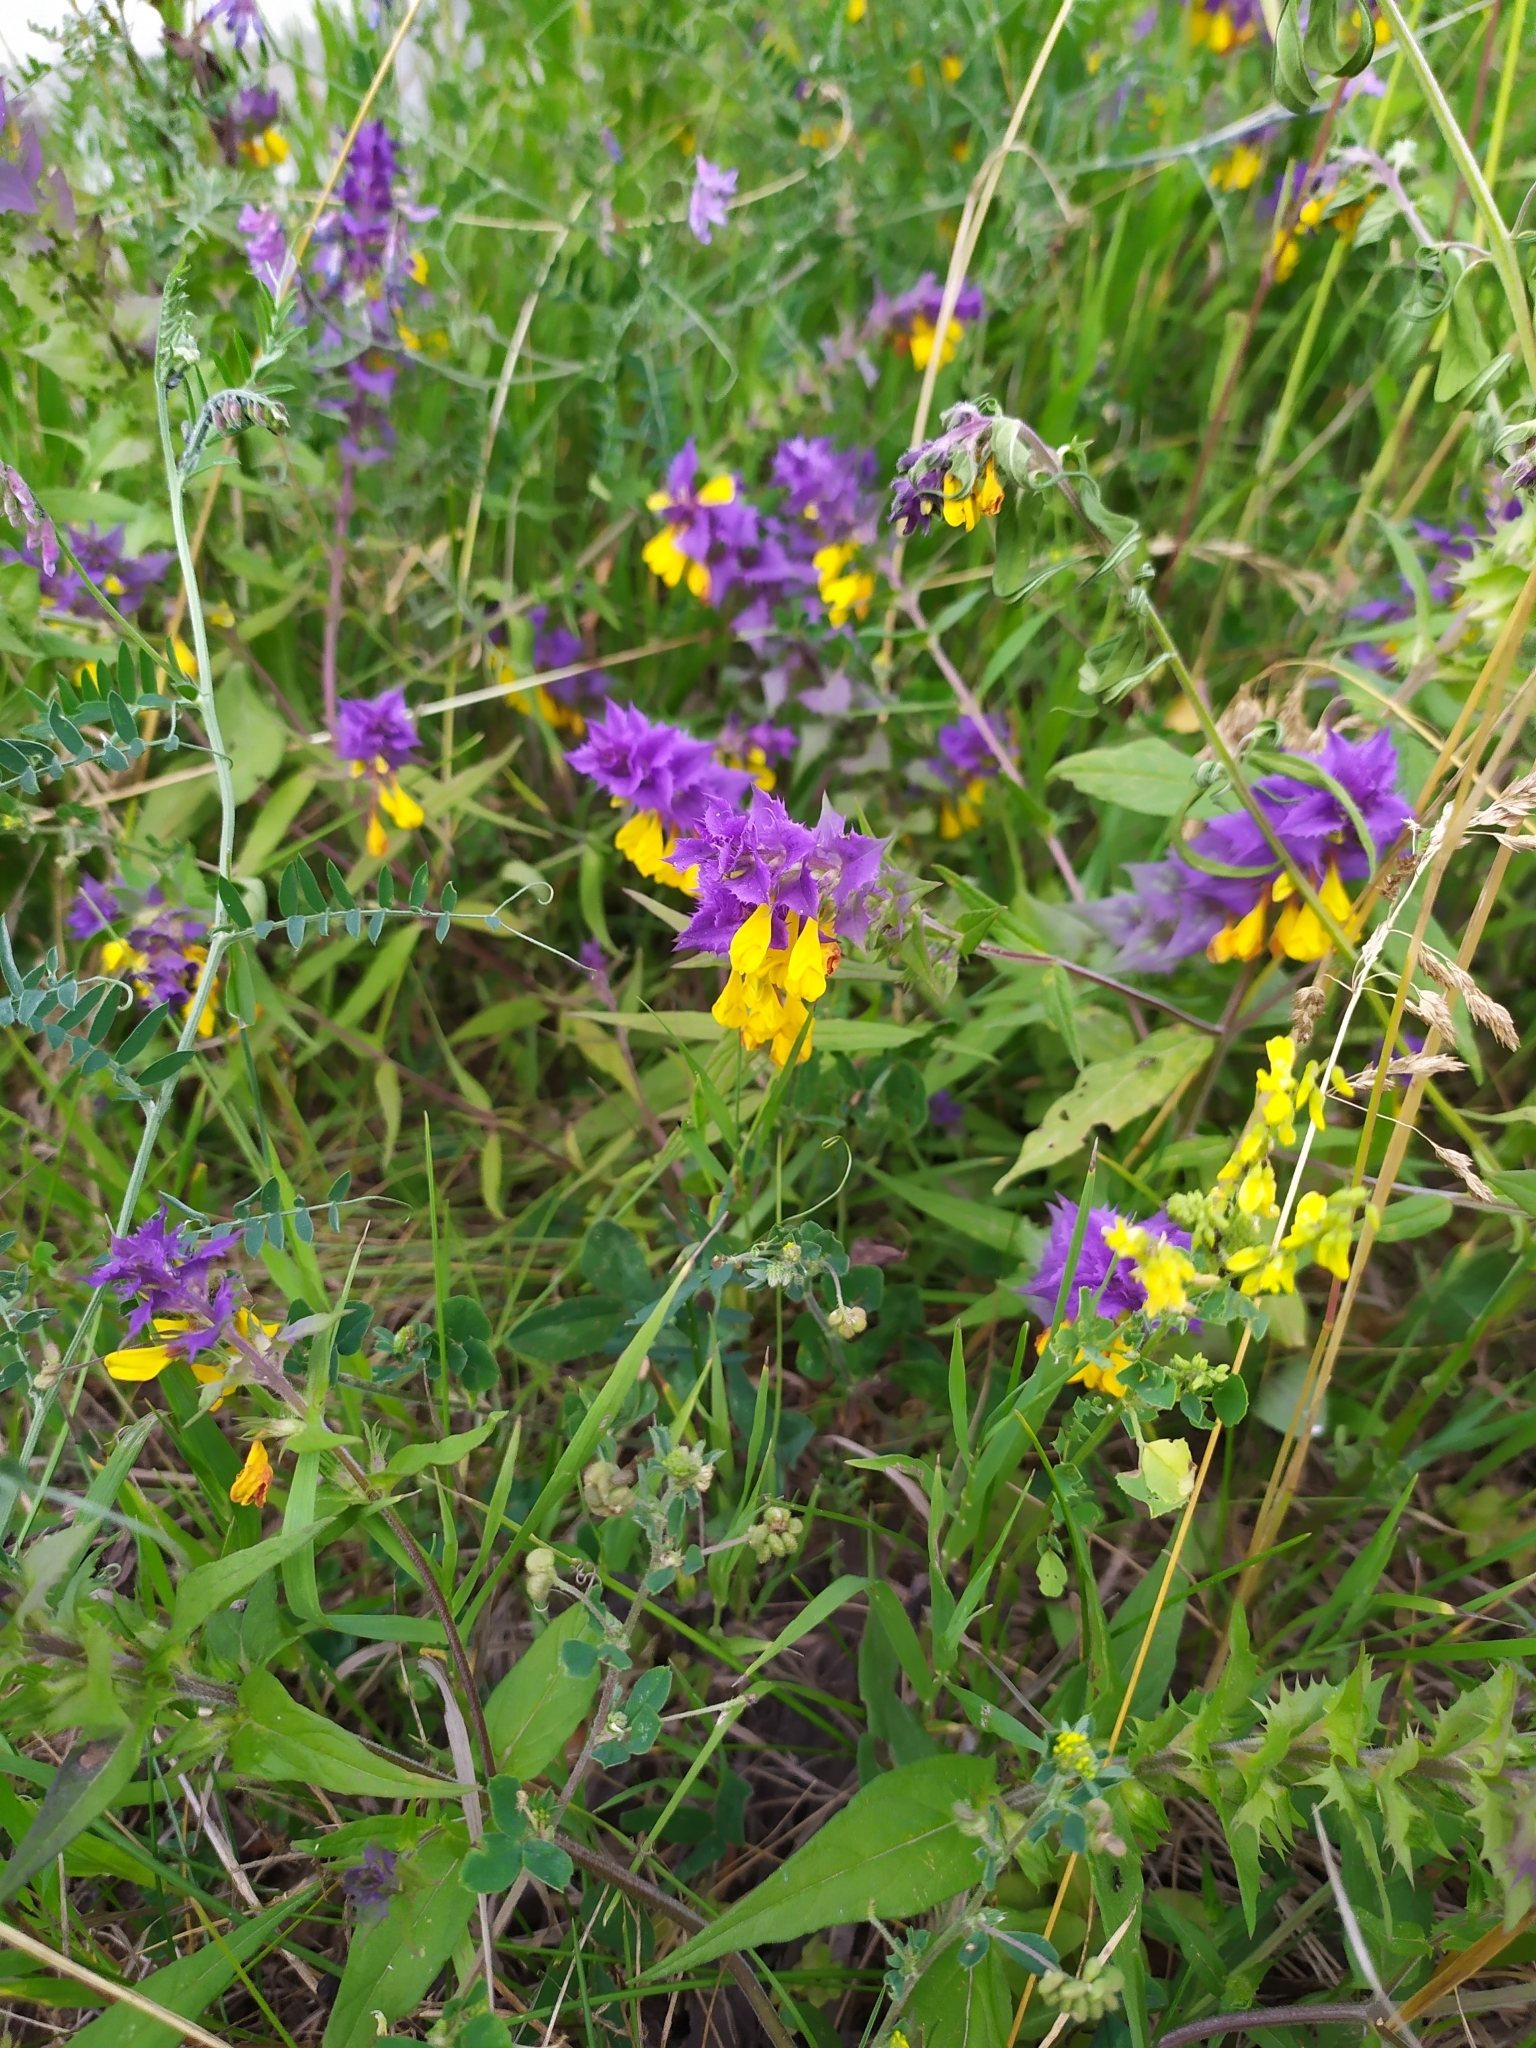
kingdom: Plantae
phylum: Tracheophyta
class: Magnoliopsida
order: Lamiales
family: Orobanchaceae
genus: Melampyrum
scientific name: Melampyrum nemorosum
